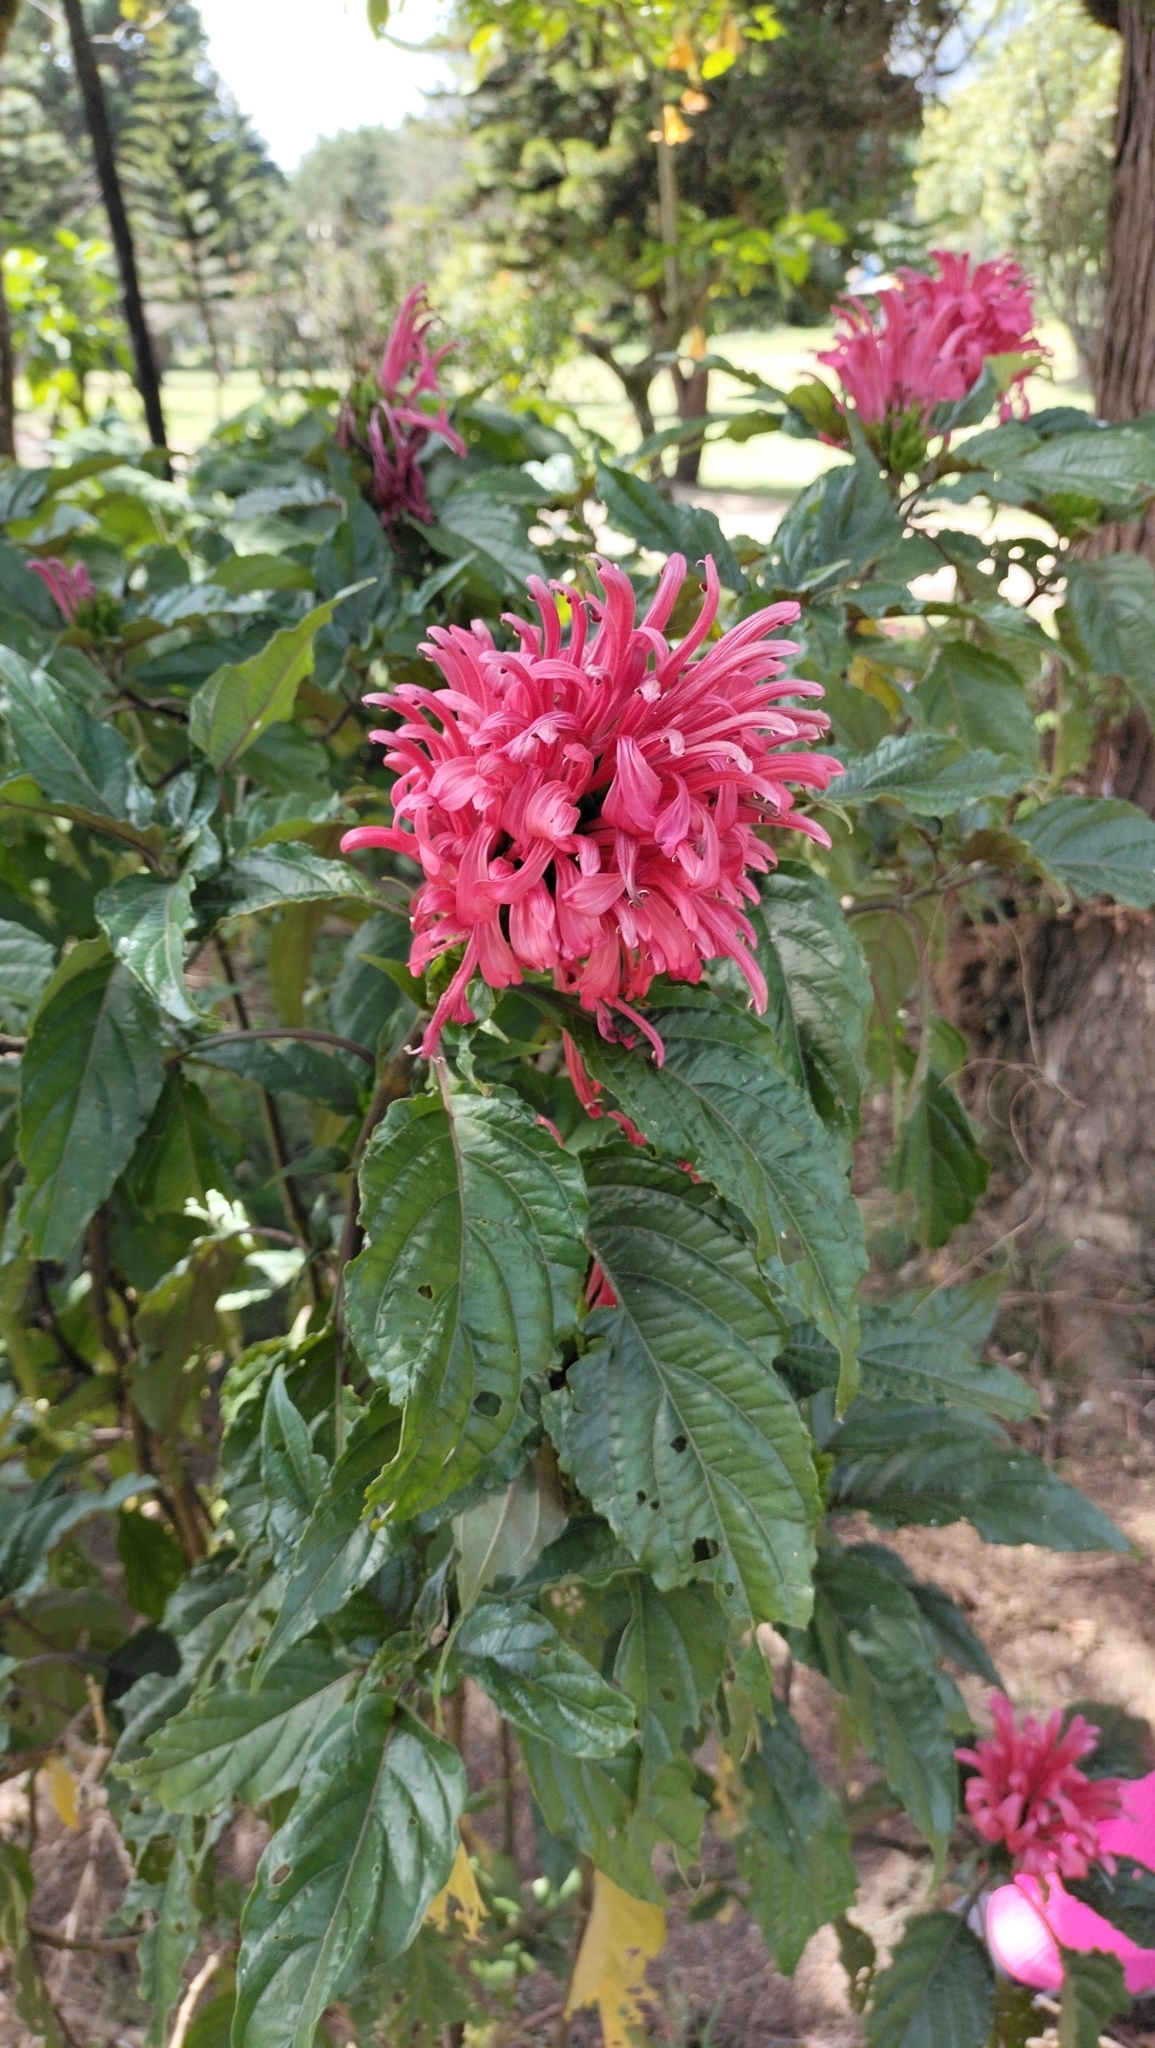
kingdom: Plantae
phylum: Tracheophyta
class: Magnoliopsida
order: Lamiales
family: Acanthaceae
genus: Justicia
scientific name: Justicia carnea
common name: Brazilian-plume
